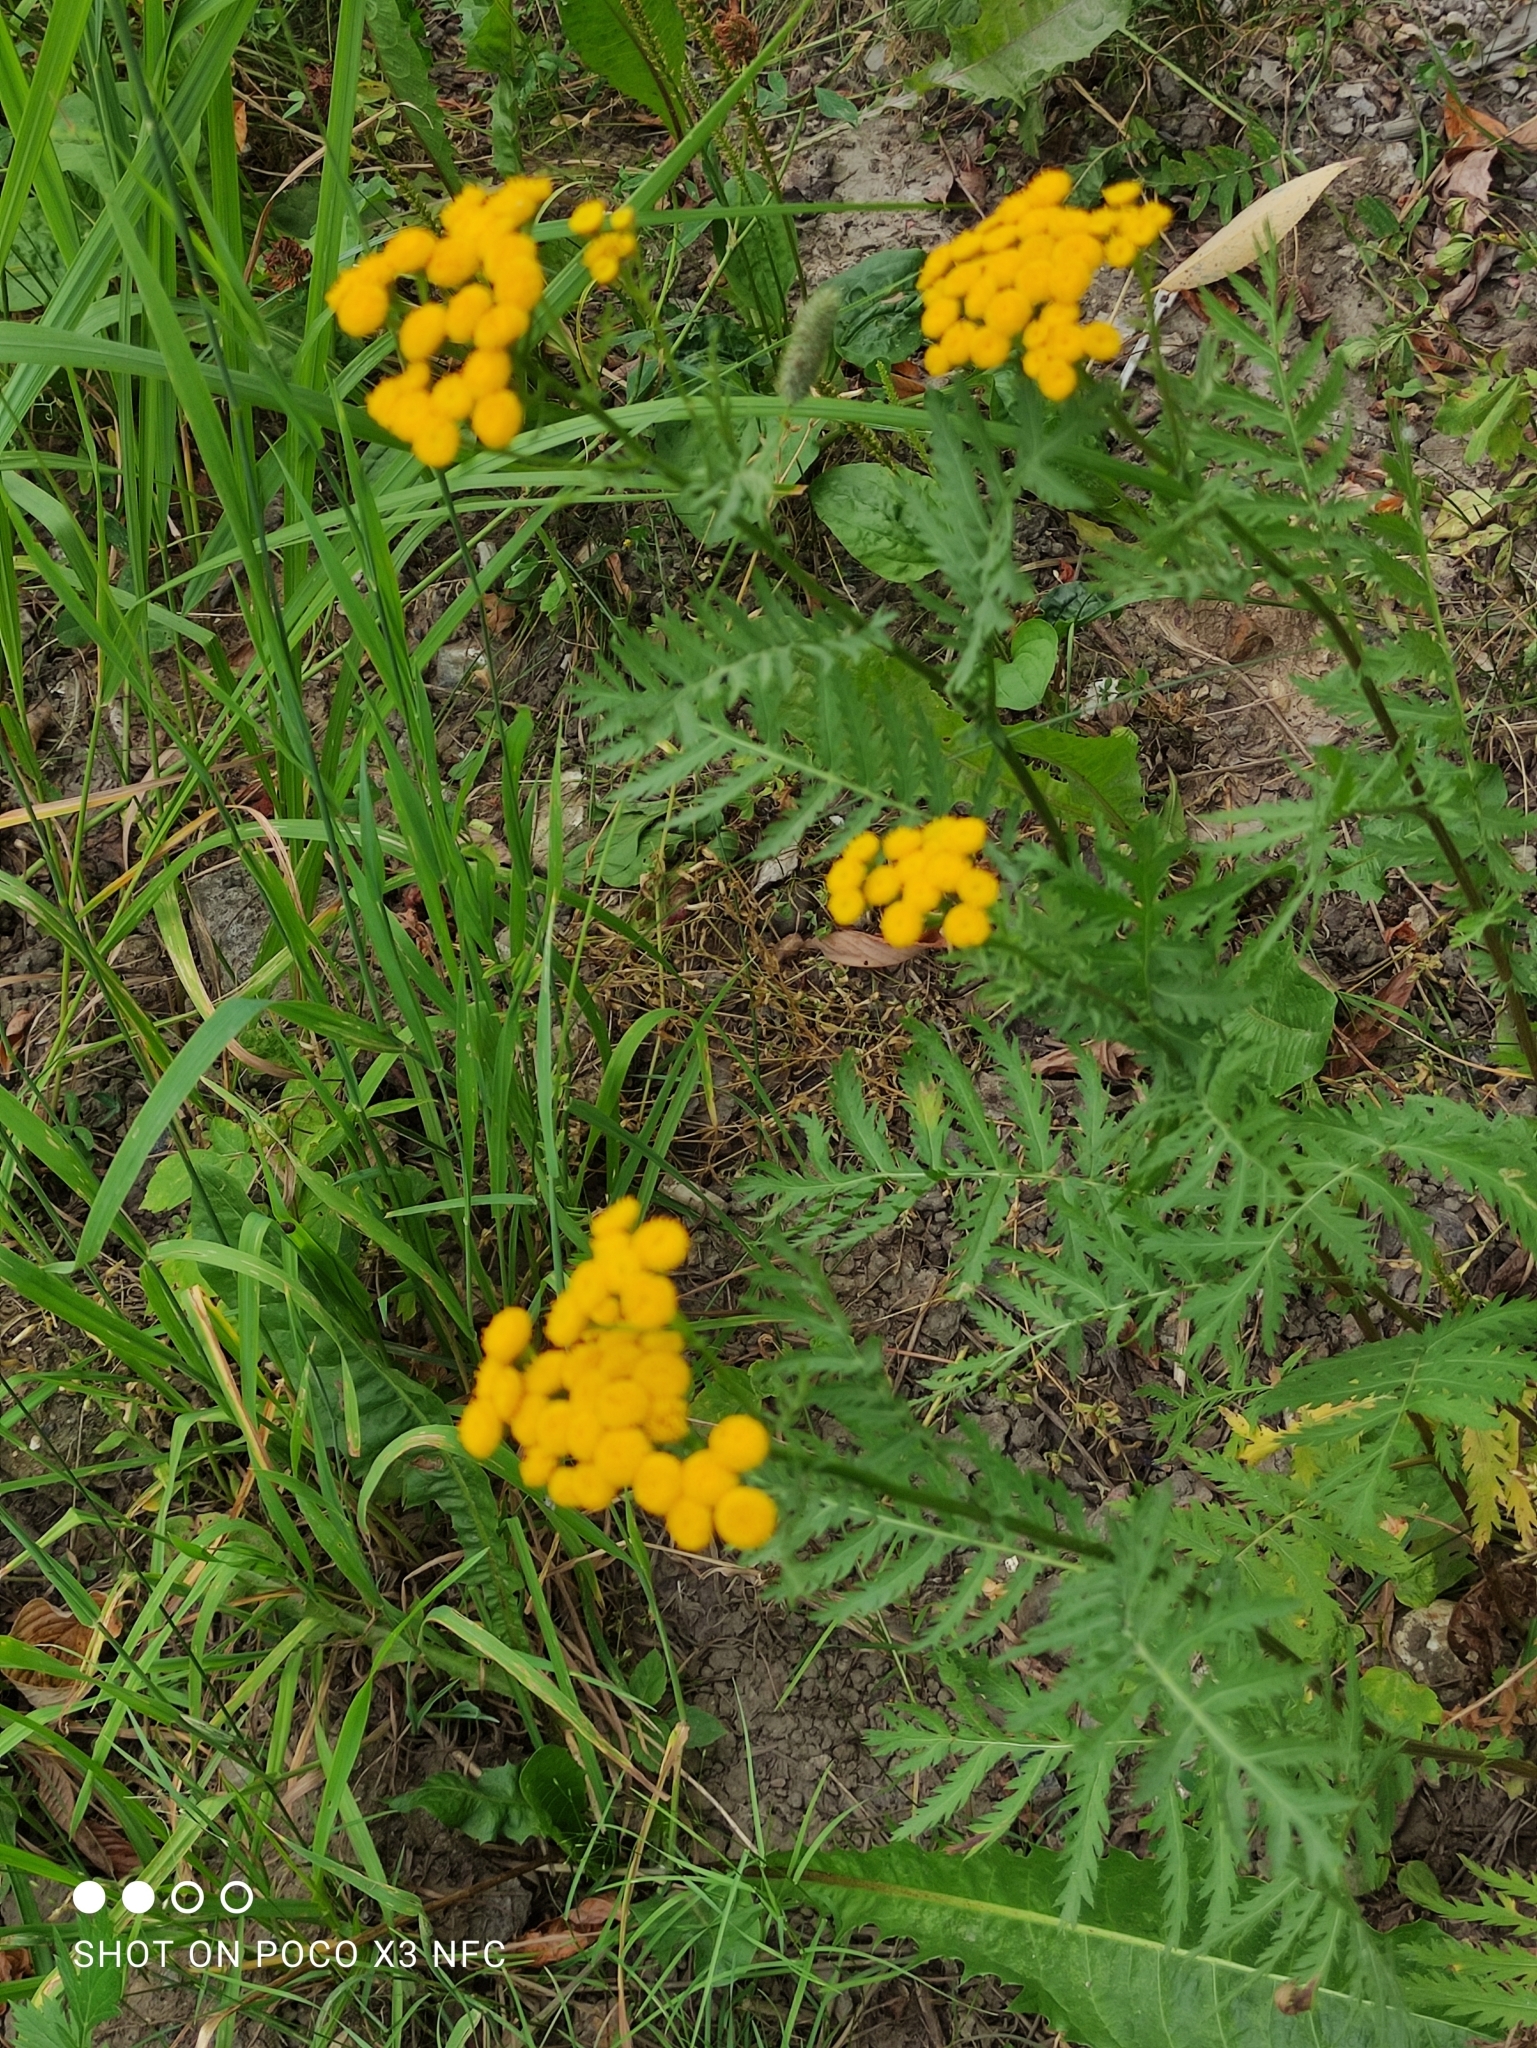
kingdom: Plantae
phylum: Tracheophyta
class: Magnoliopsida
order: Asterales
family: Asteraceae
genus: Tanacetum
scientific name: Tanacetum vulgare
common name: Common tansy
